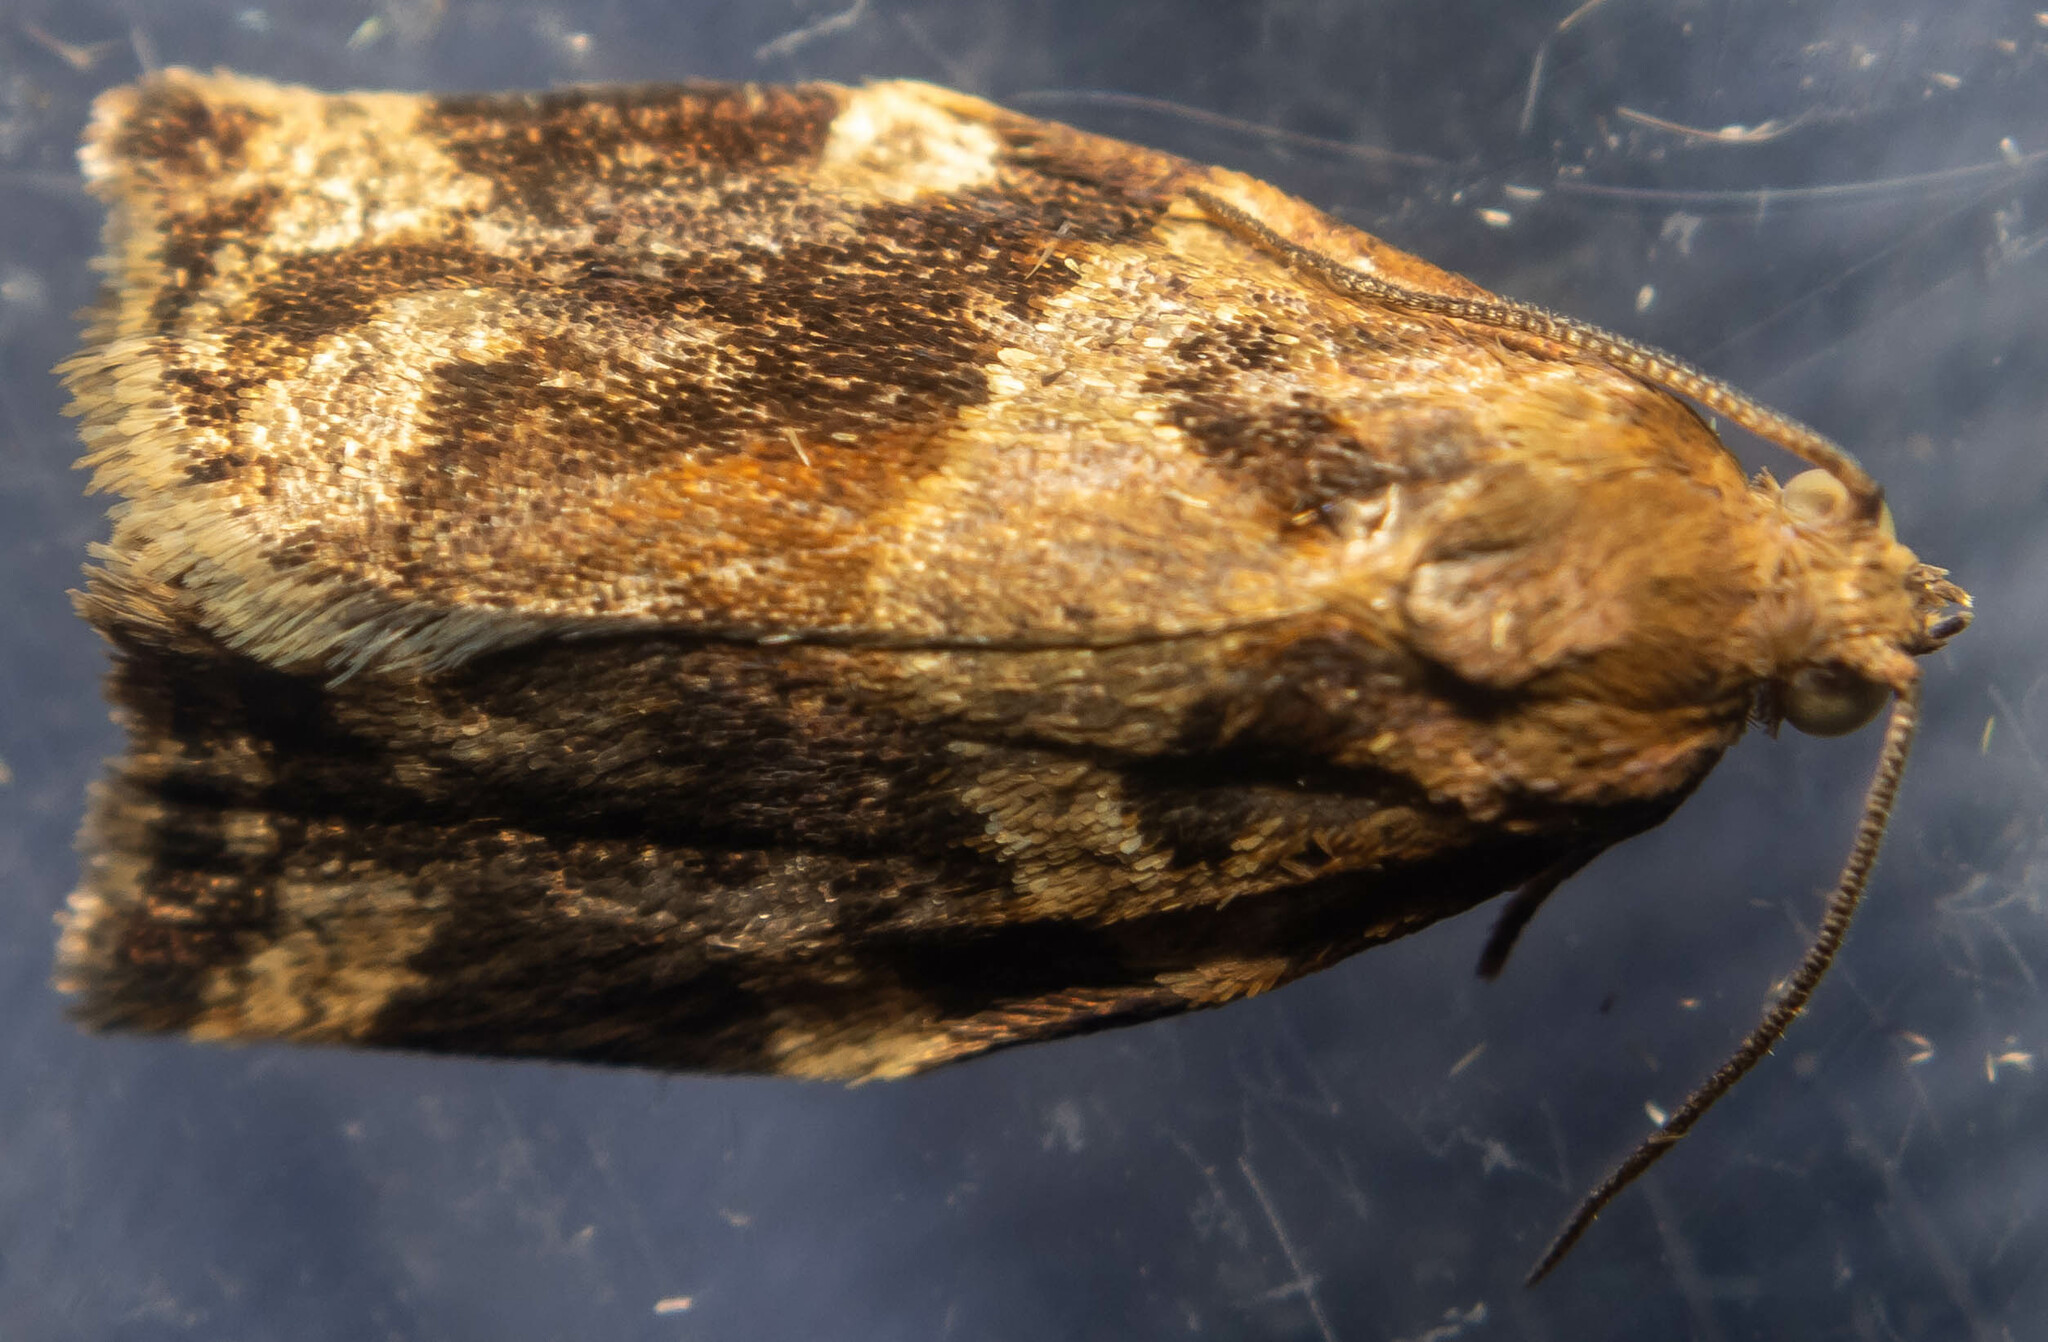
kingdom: Animalia
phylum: Arthropoda
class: Insecta
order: Lepidoptera
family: Tortricidae
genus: Archips
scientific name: Archips xylosteana
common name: Variegated golden tortrix
